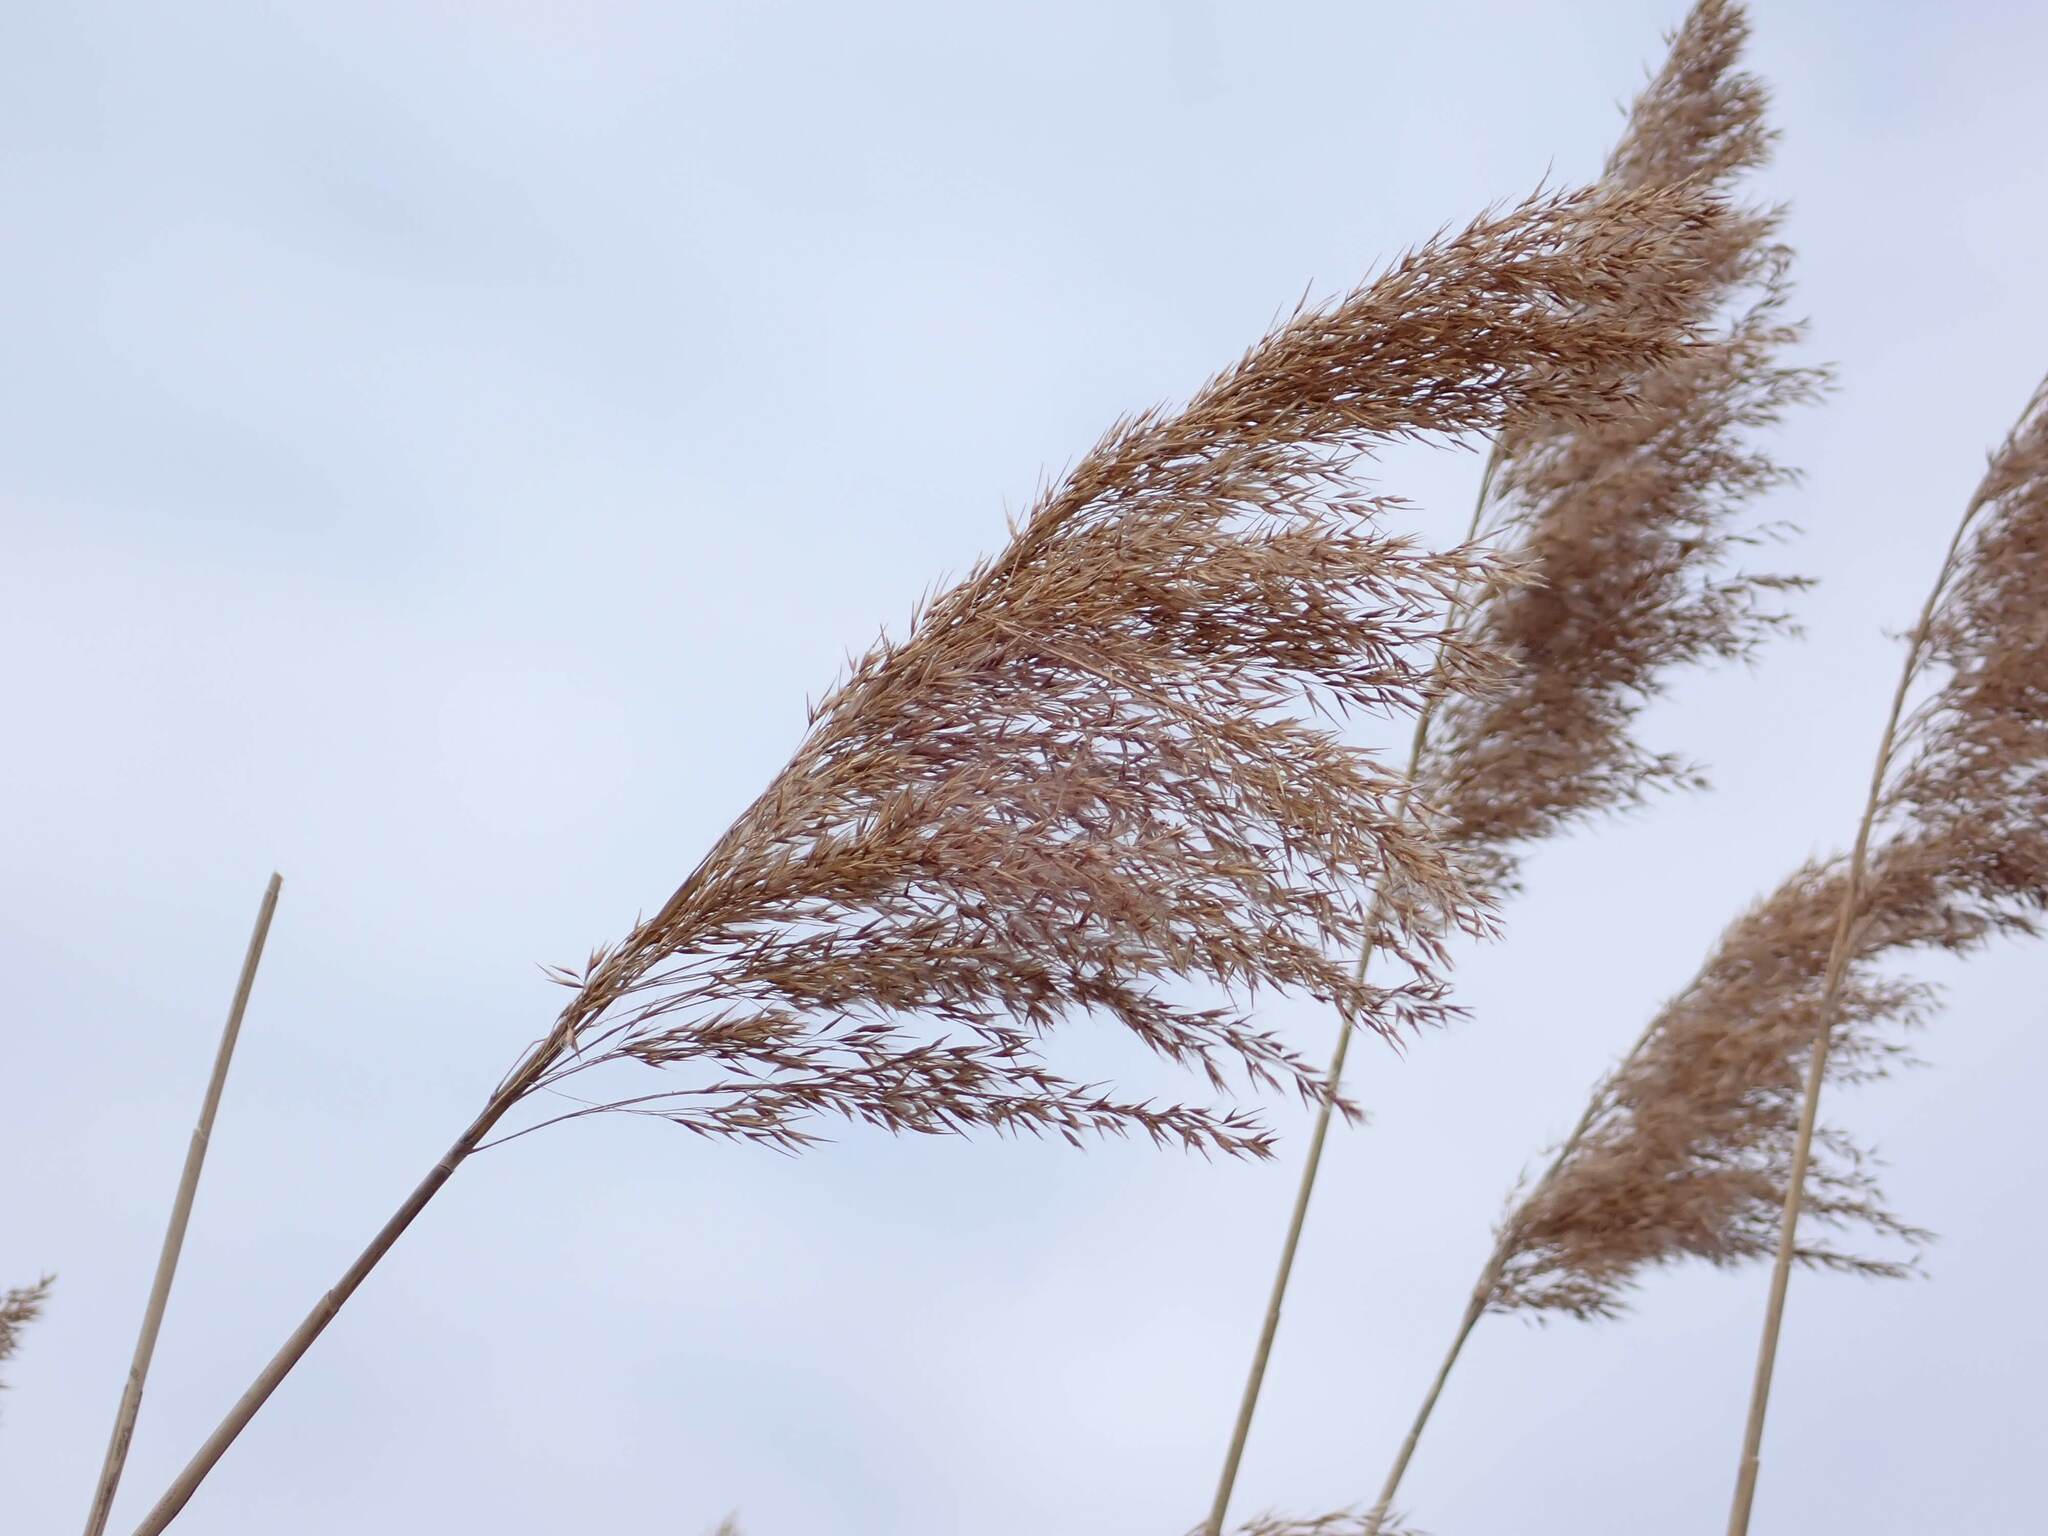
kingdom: Plantae
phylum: Tracheophyta
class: Liliopsida
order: Poales
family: Poaceae
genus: Phragmites
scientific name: Phragmites australis
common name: Common reed
